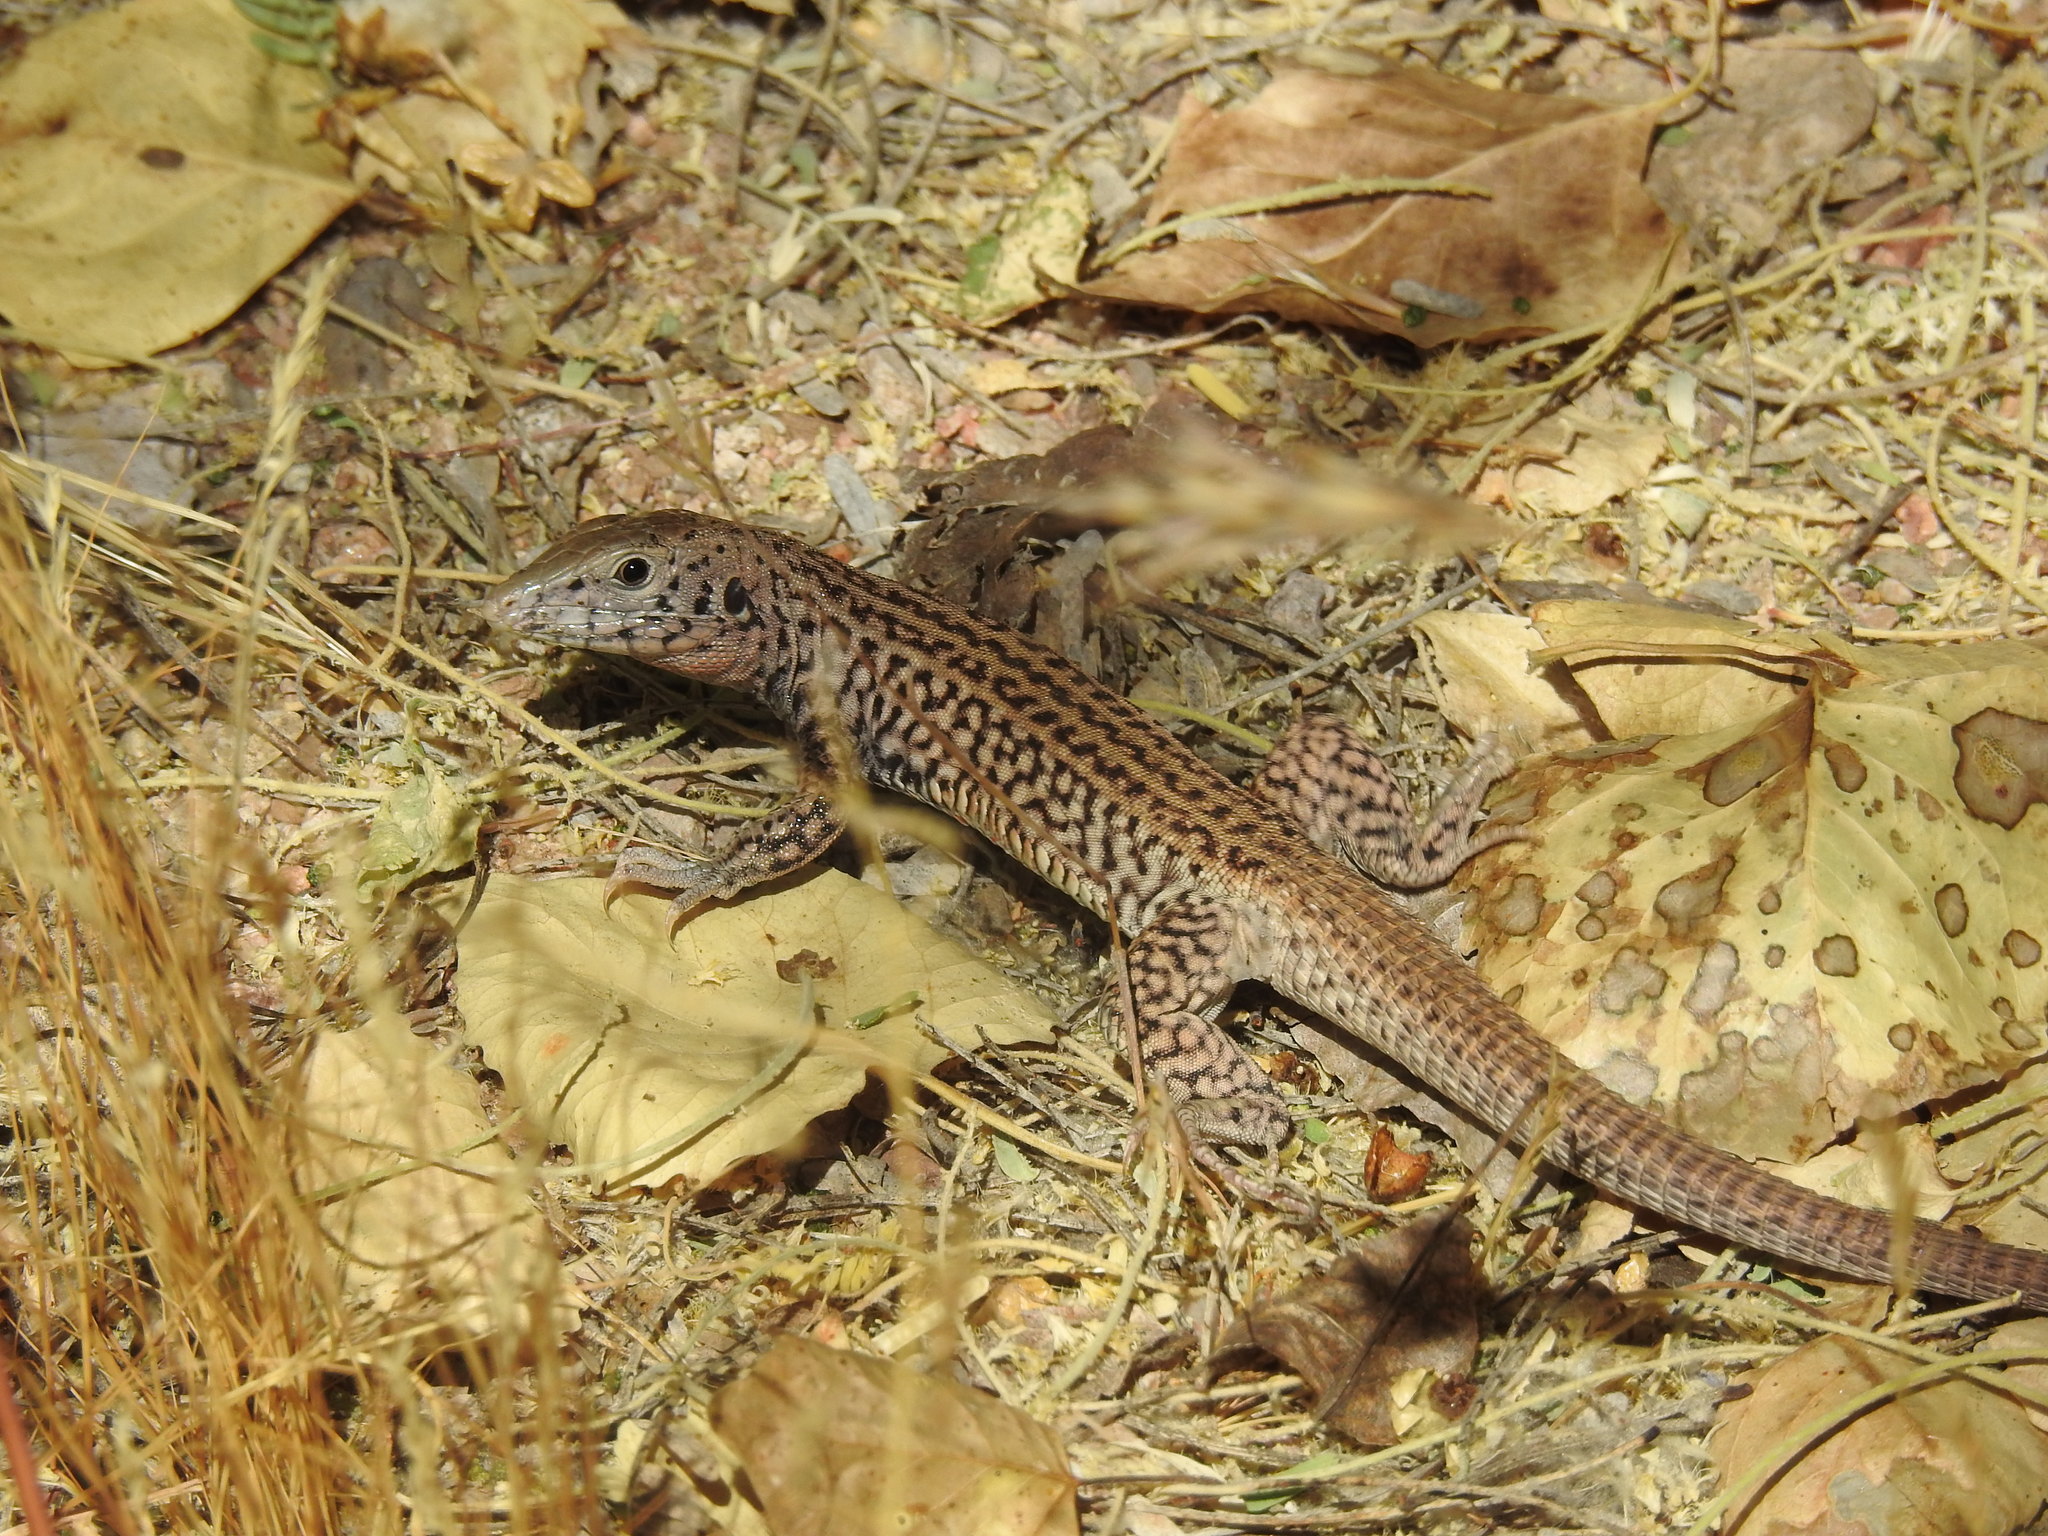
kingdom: Animalia
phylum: Chordata
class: Squamata
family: Teiidae
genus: Aspidoscelis
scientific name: Aspidoscelis tigris
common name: Tiger whiptail
